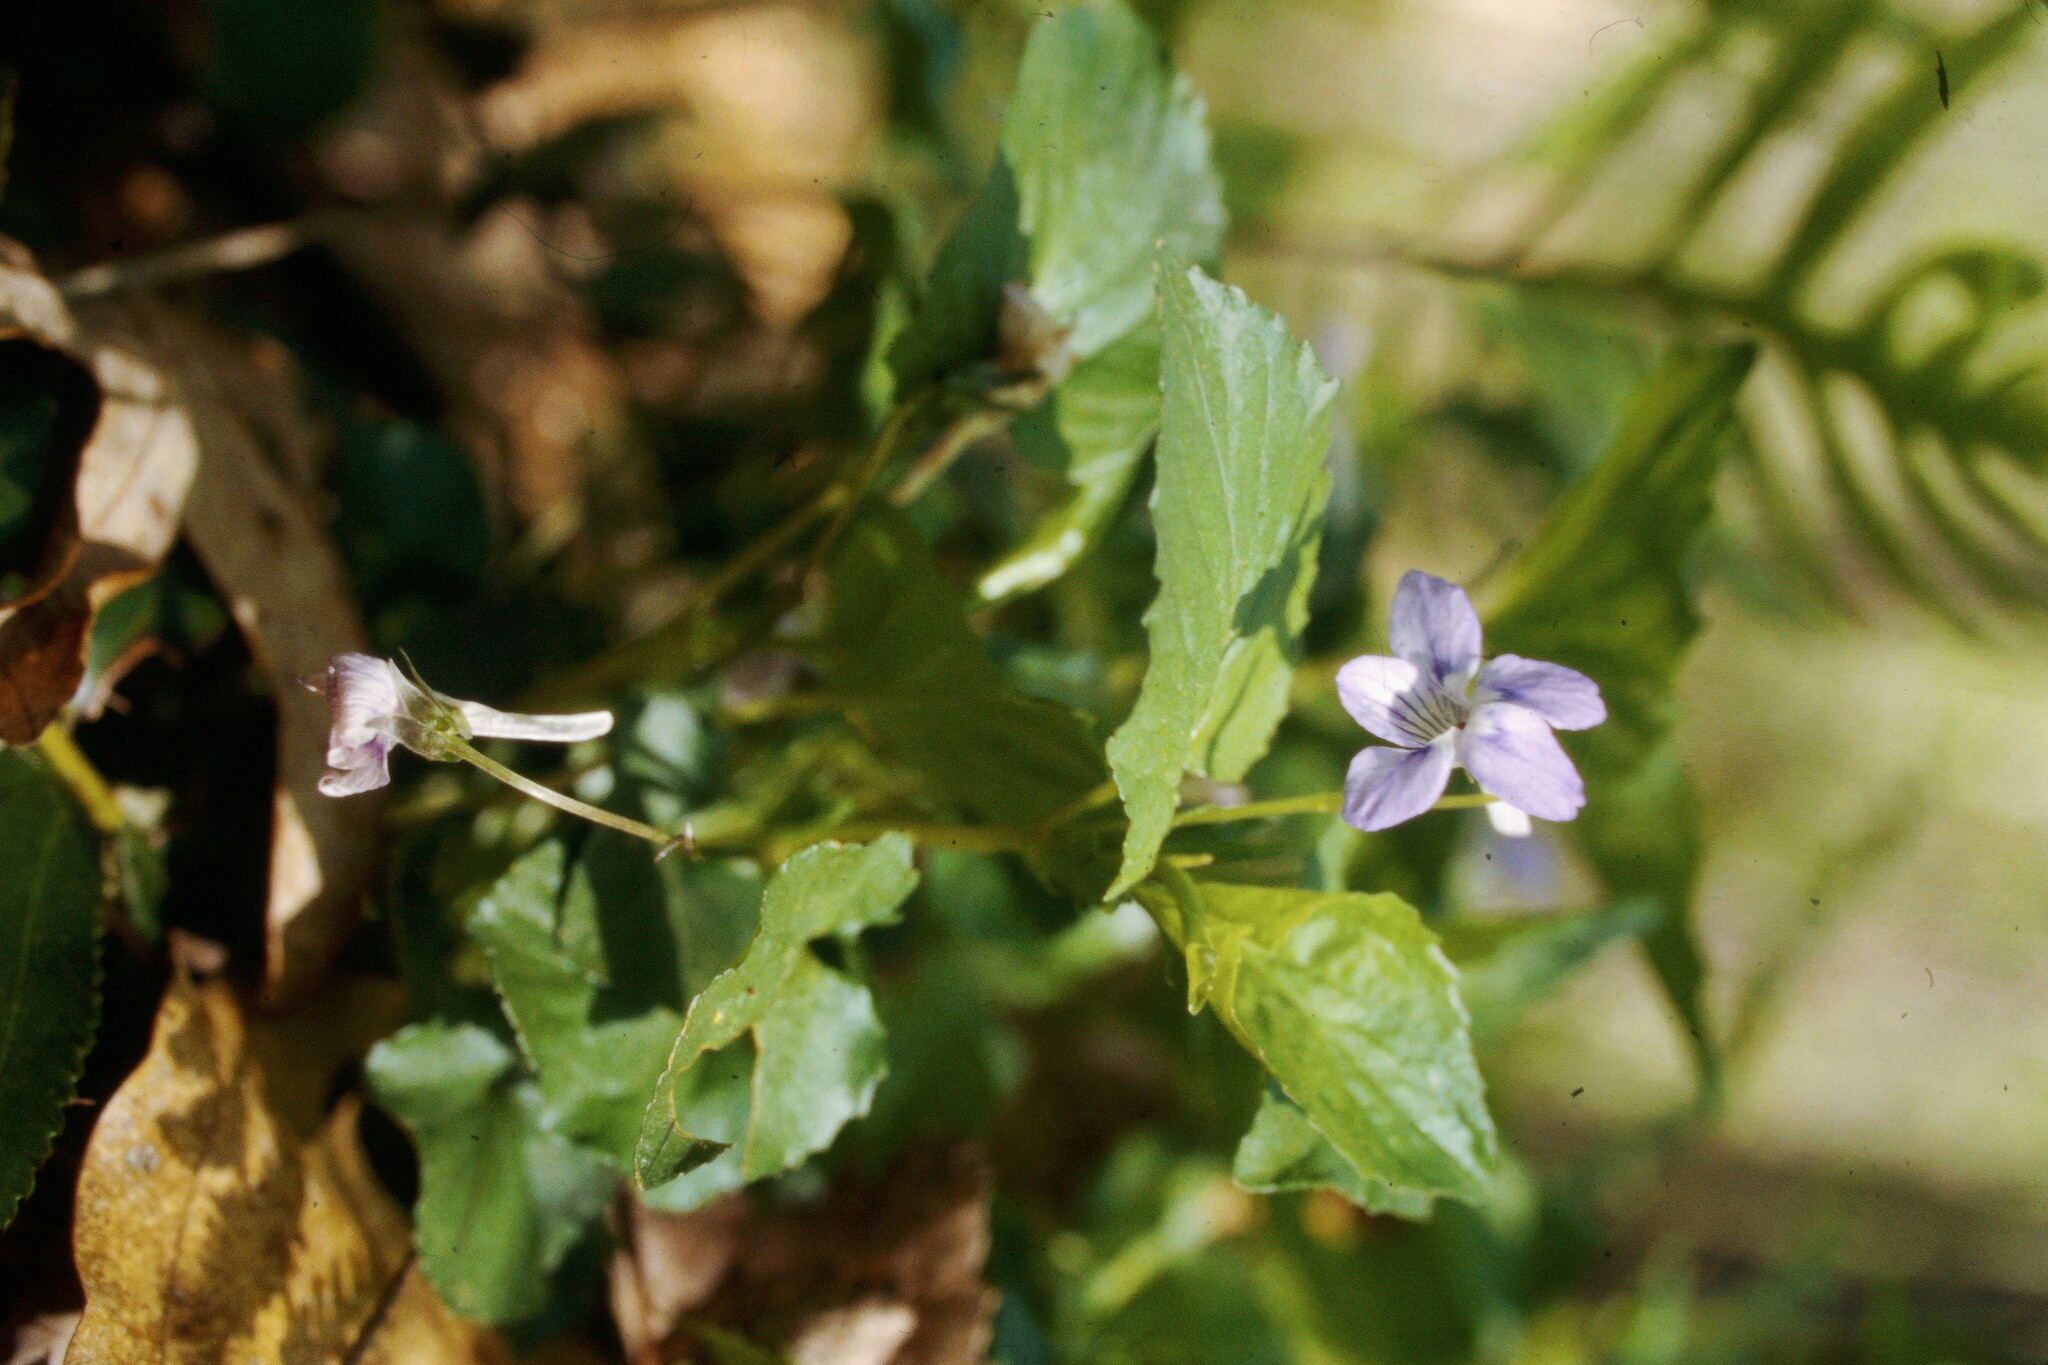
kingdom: Plantae
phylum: Tracheophyta
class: Magnoliopsida
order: Malpighiales
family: Violaceae
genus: Viola
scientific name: Viola rostrata
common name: Long-spur violet
